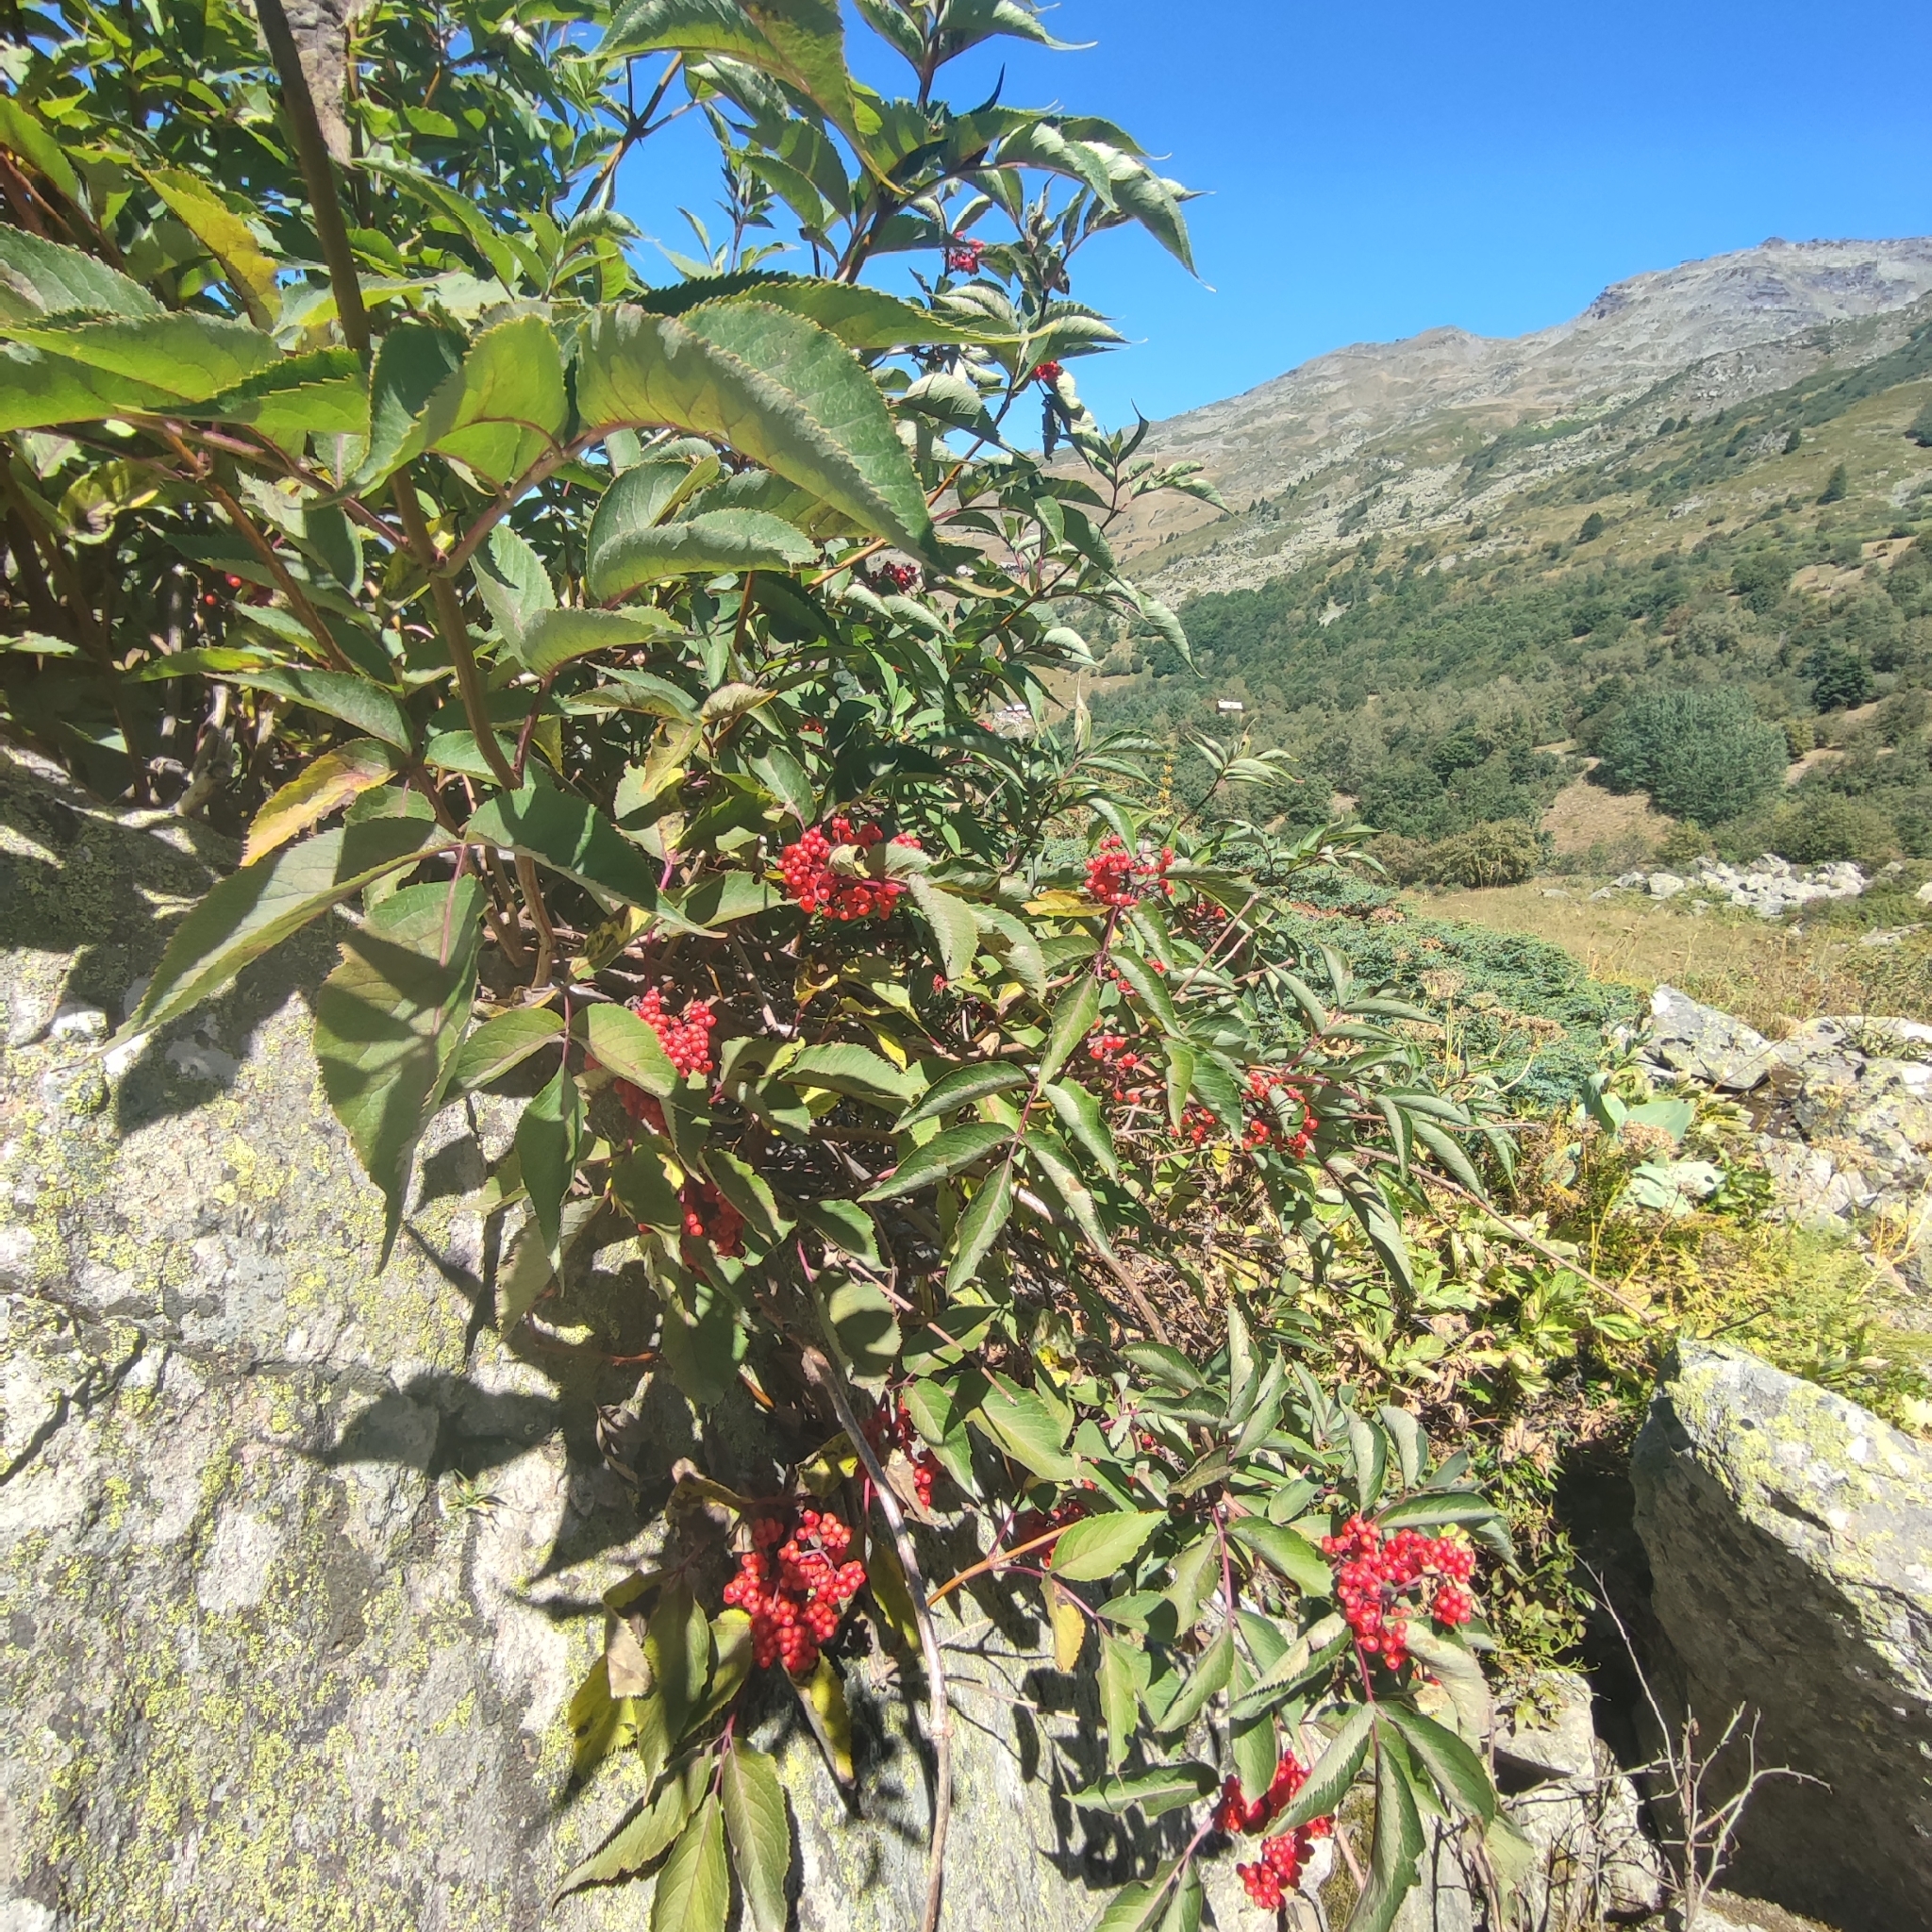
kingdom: Plantae
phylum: Tracheophyta
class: Magnoliopsida
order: Dipsacales
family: Viburnaceae
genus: Sambucus
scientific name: Sambucus racemosa
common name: Red-berried elder
